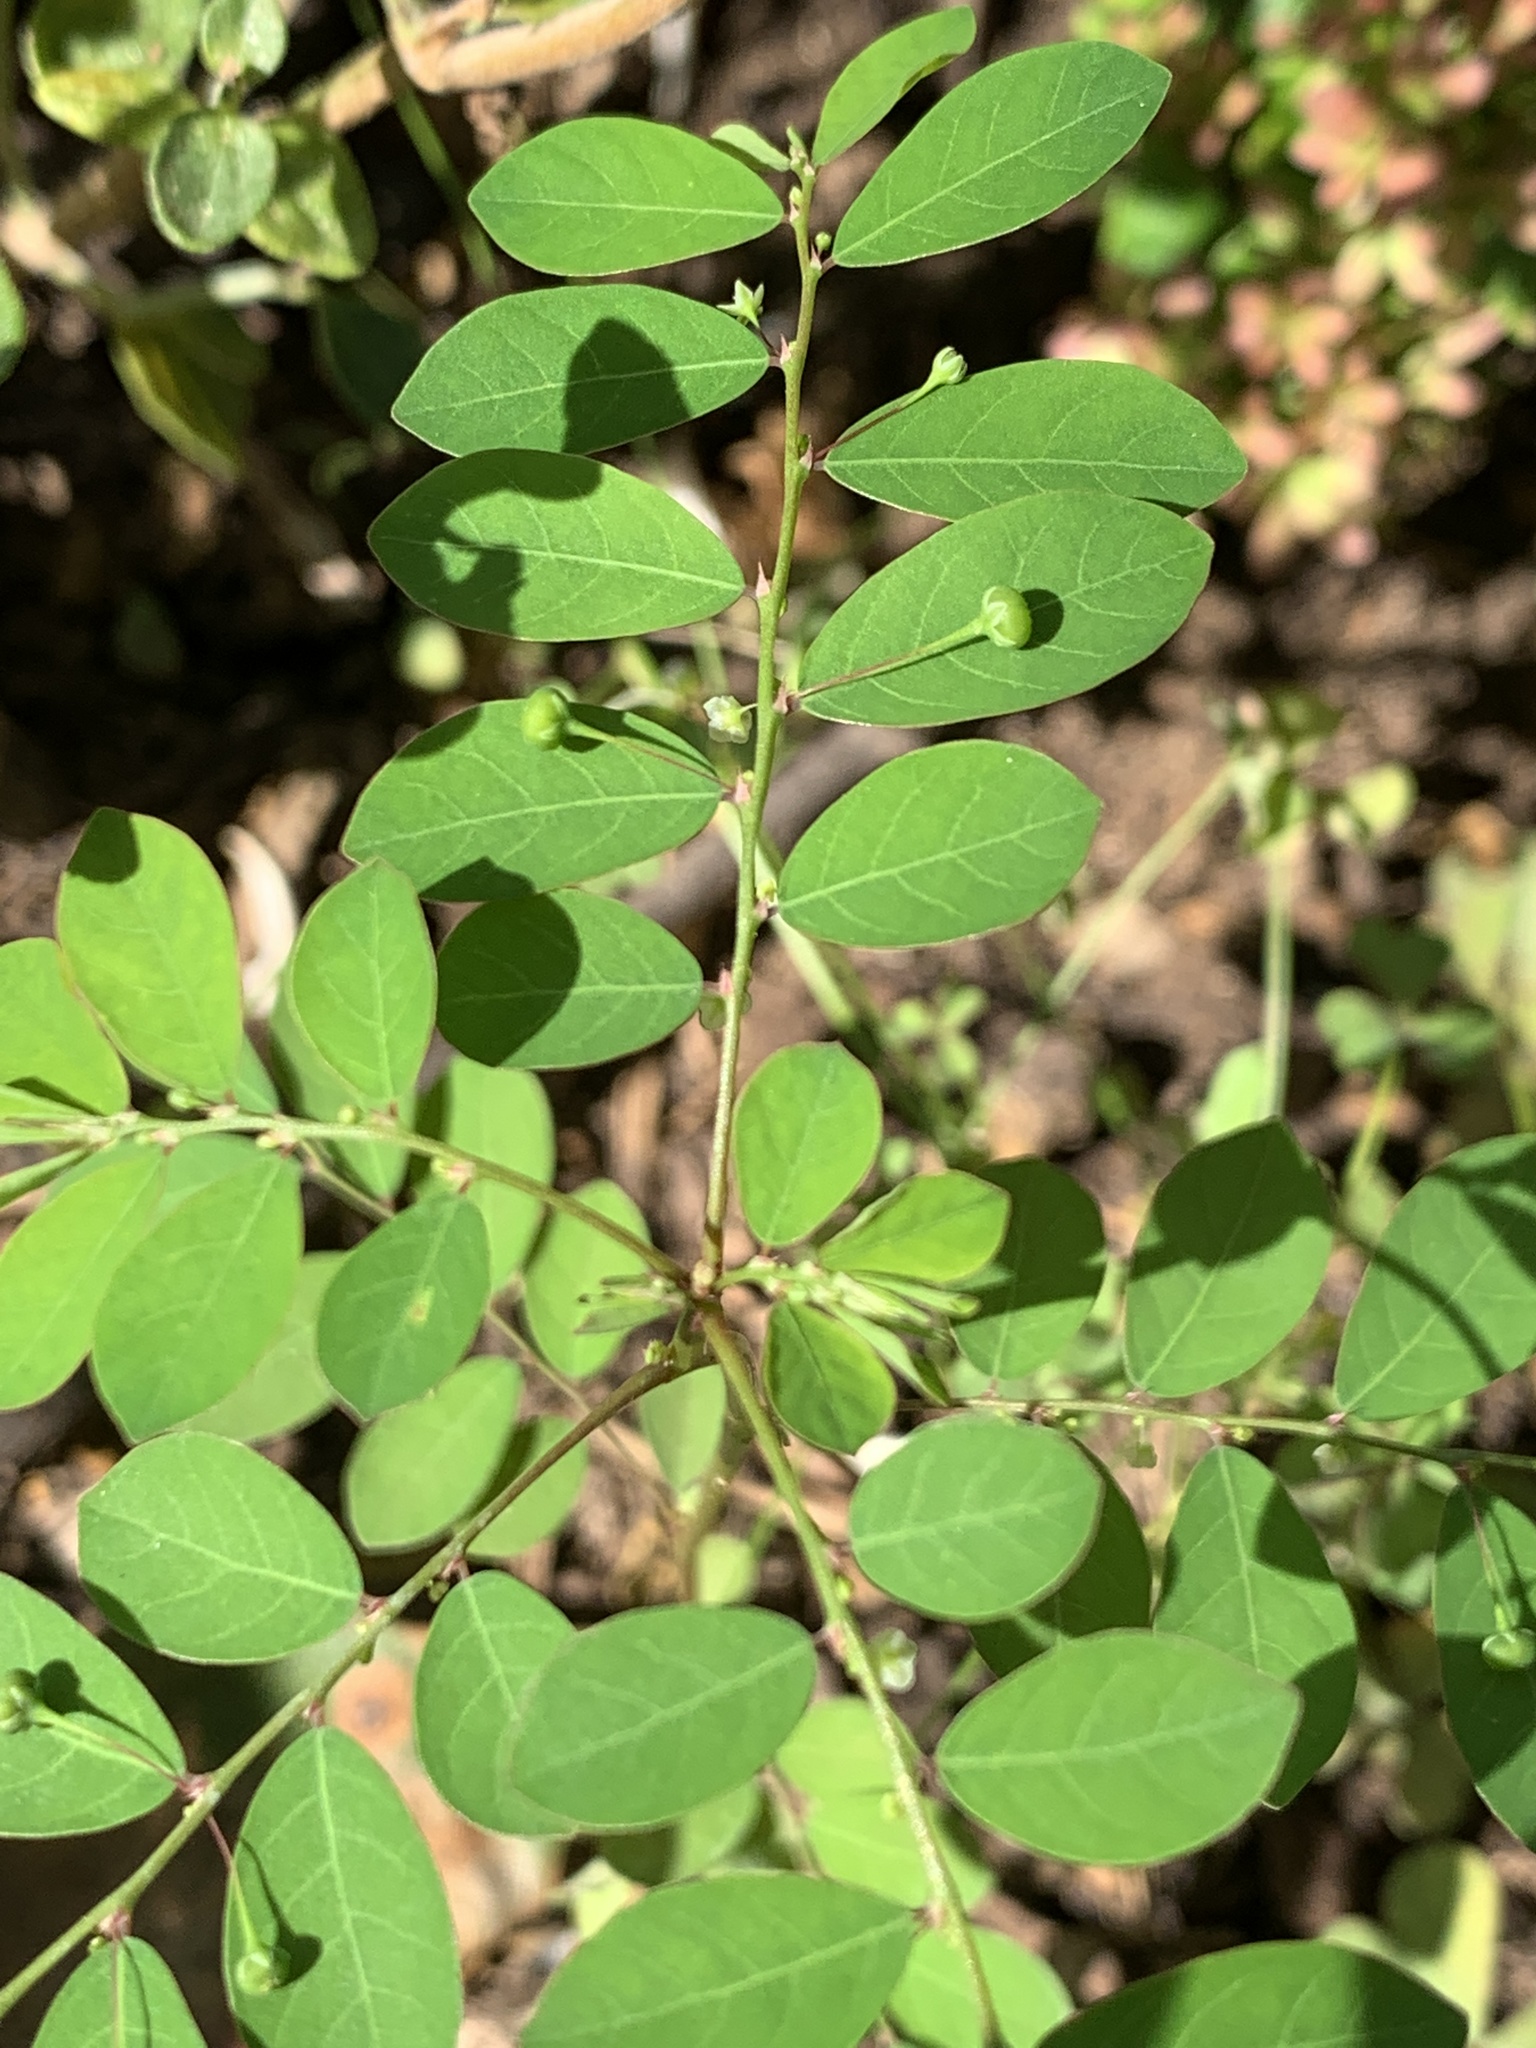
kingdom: Plantae
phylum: Tracheophyta
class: Magnoliopsida
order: Malpighiales
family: Phyllanthaceae
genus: Phyllanthus
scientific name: Phyllanthus tenellus
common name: Mascarene island leaf-flower
